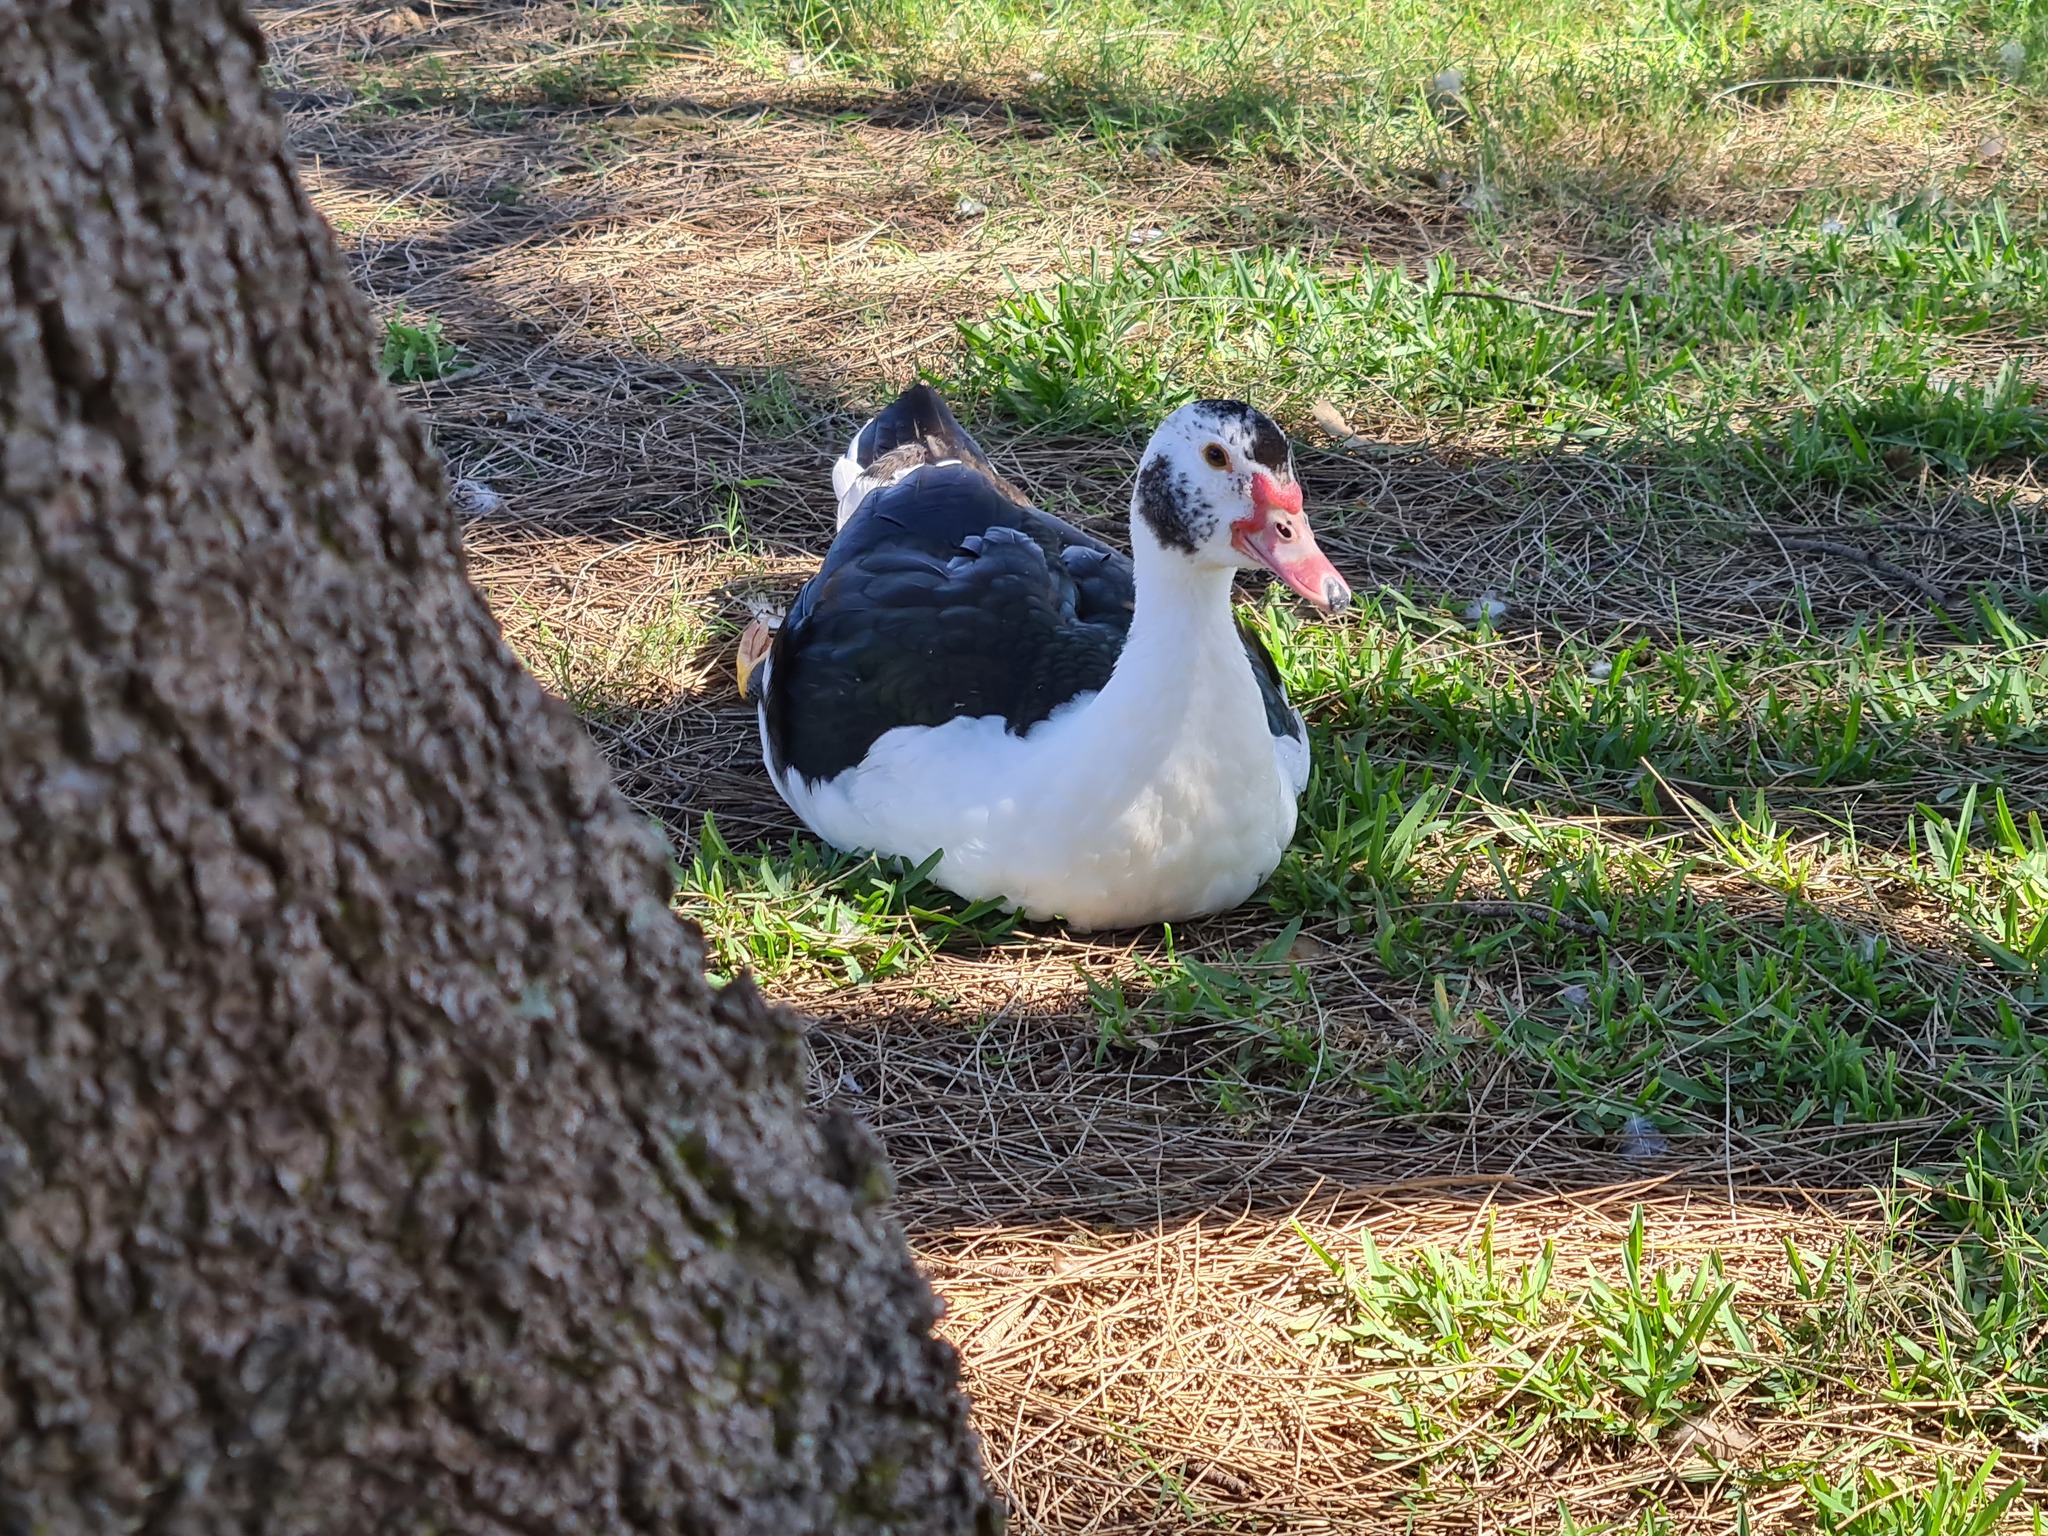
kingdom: Animalia
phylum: Chordata
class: Aves
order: Anseriformes
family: Anatidae
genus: Cairina
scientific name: Cairina moschata
